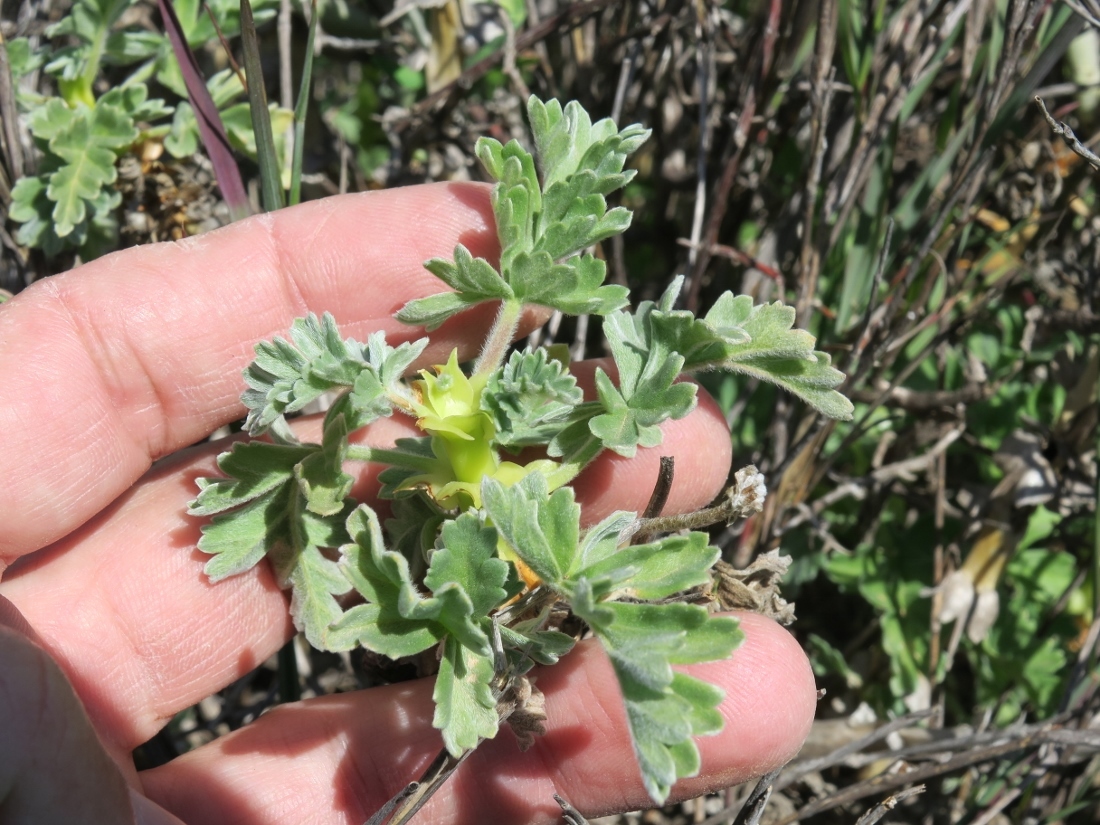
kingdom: Plantae
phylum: Tracheophyta
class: Magnoliopsida
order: Geraniales
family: Geraniaceae
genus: Pelargonium
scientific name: Pelargonium fulgidum
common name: Celandine-leaf pelargonium
